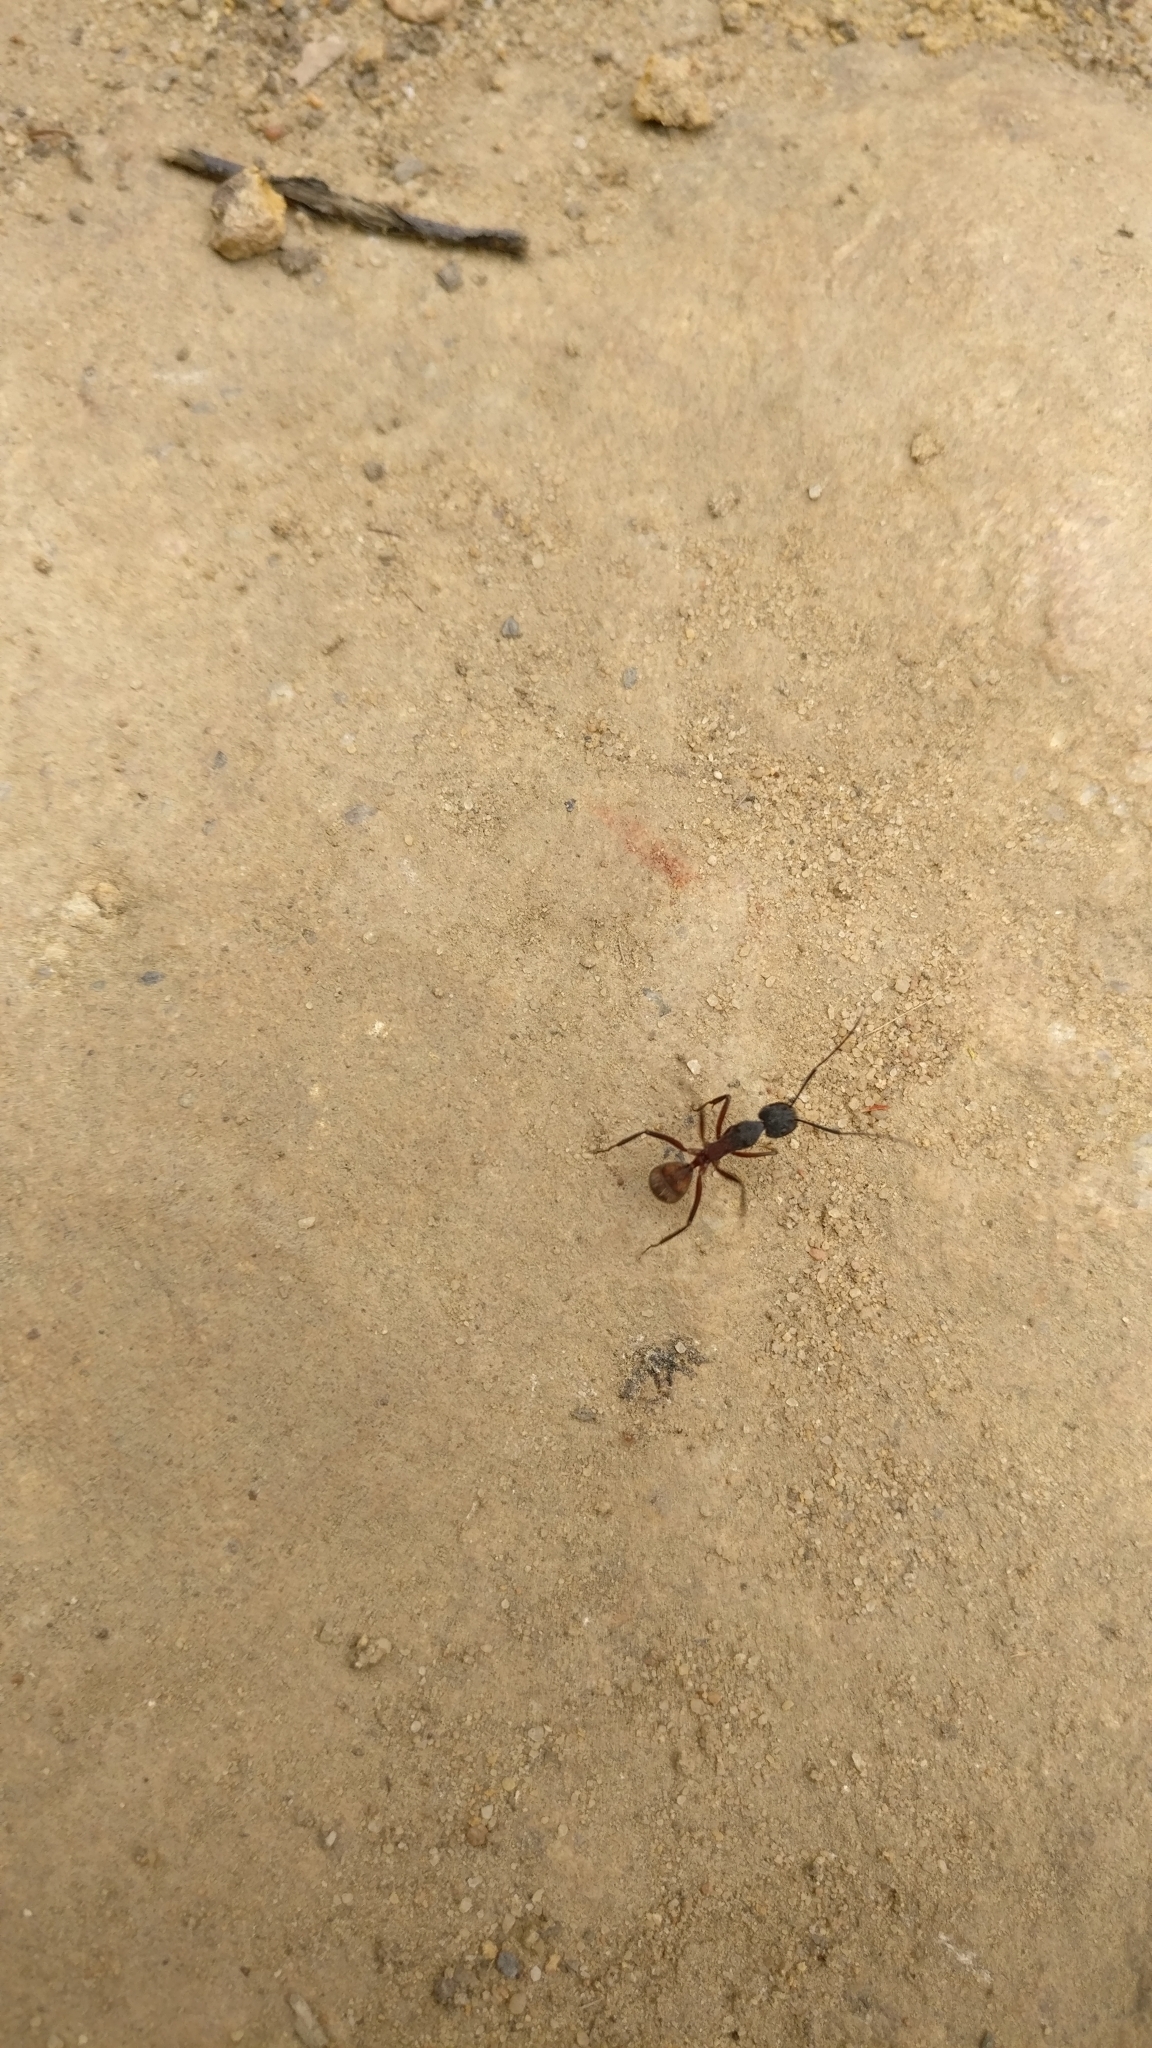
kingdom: Animalia
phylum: Arthropoda
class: Insecta
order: Hymenoptera
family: Formicidae
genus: Camponotus
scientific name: Camponotus cruentatus
